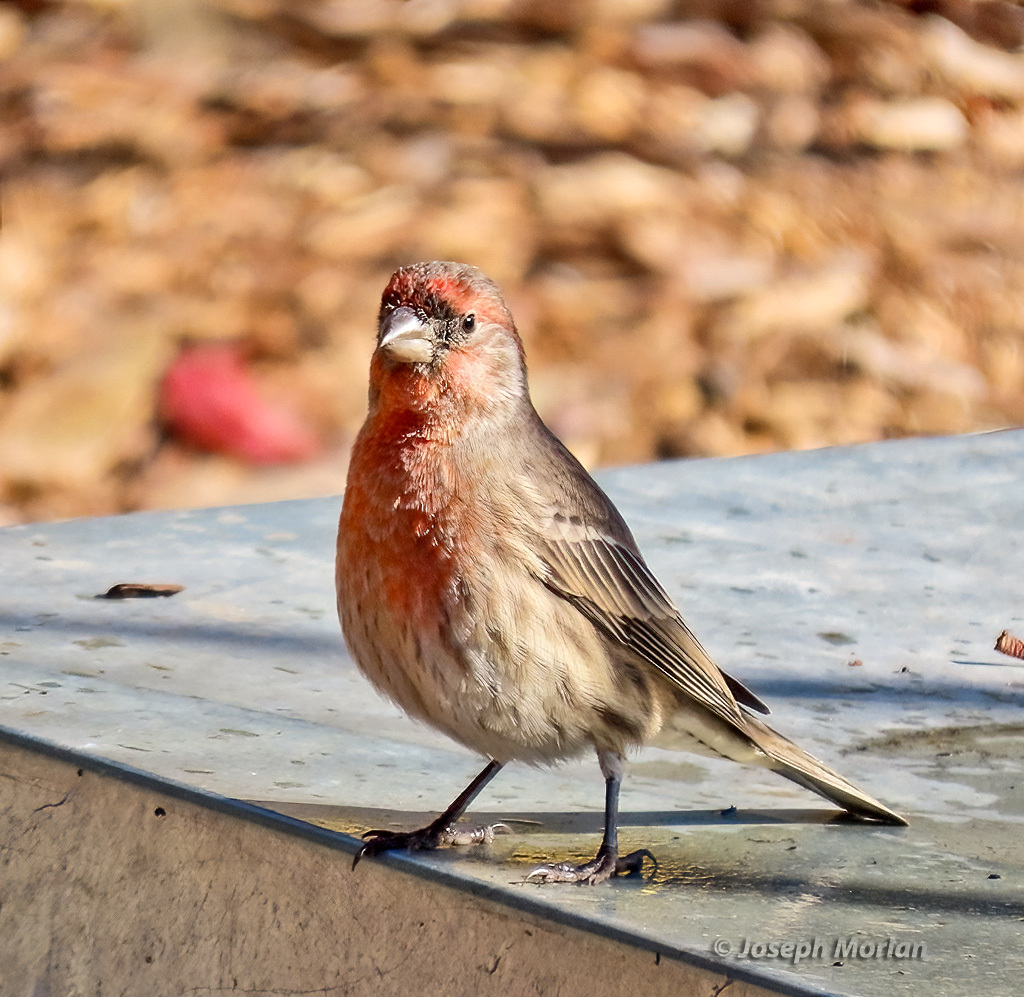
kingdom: Animalia
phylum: Chordata
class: Aves
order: Passeriformes
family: Fringillidae
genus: Haemorhous
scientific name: Haemorhous mexicanus
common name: House finch
